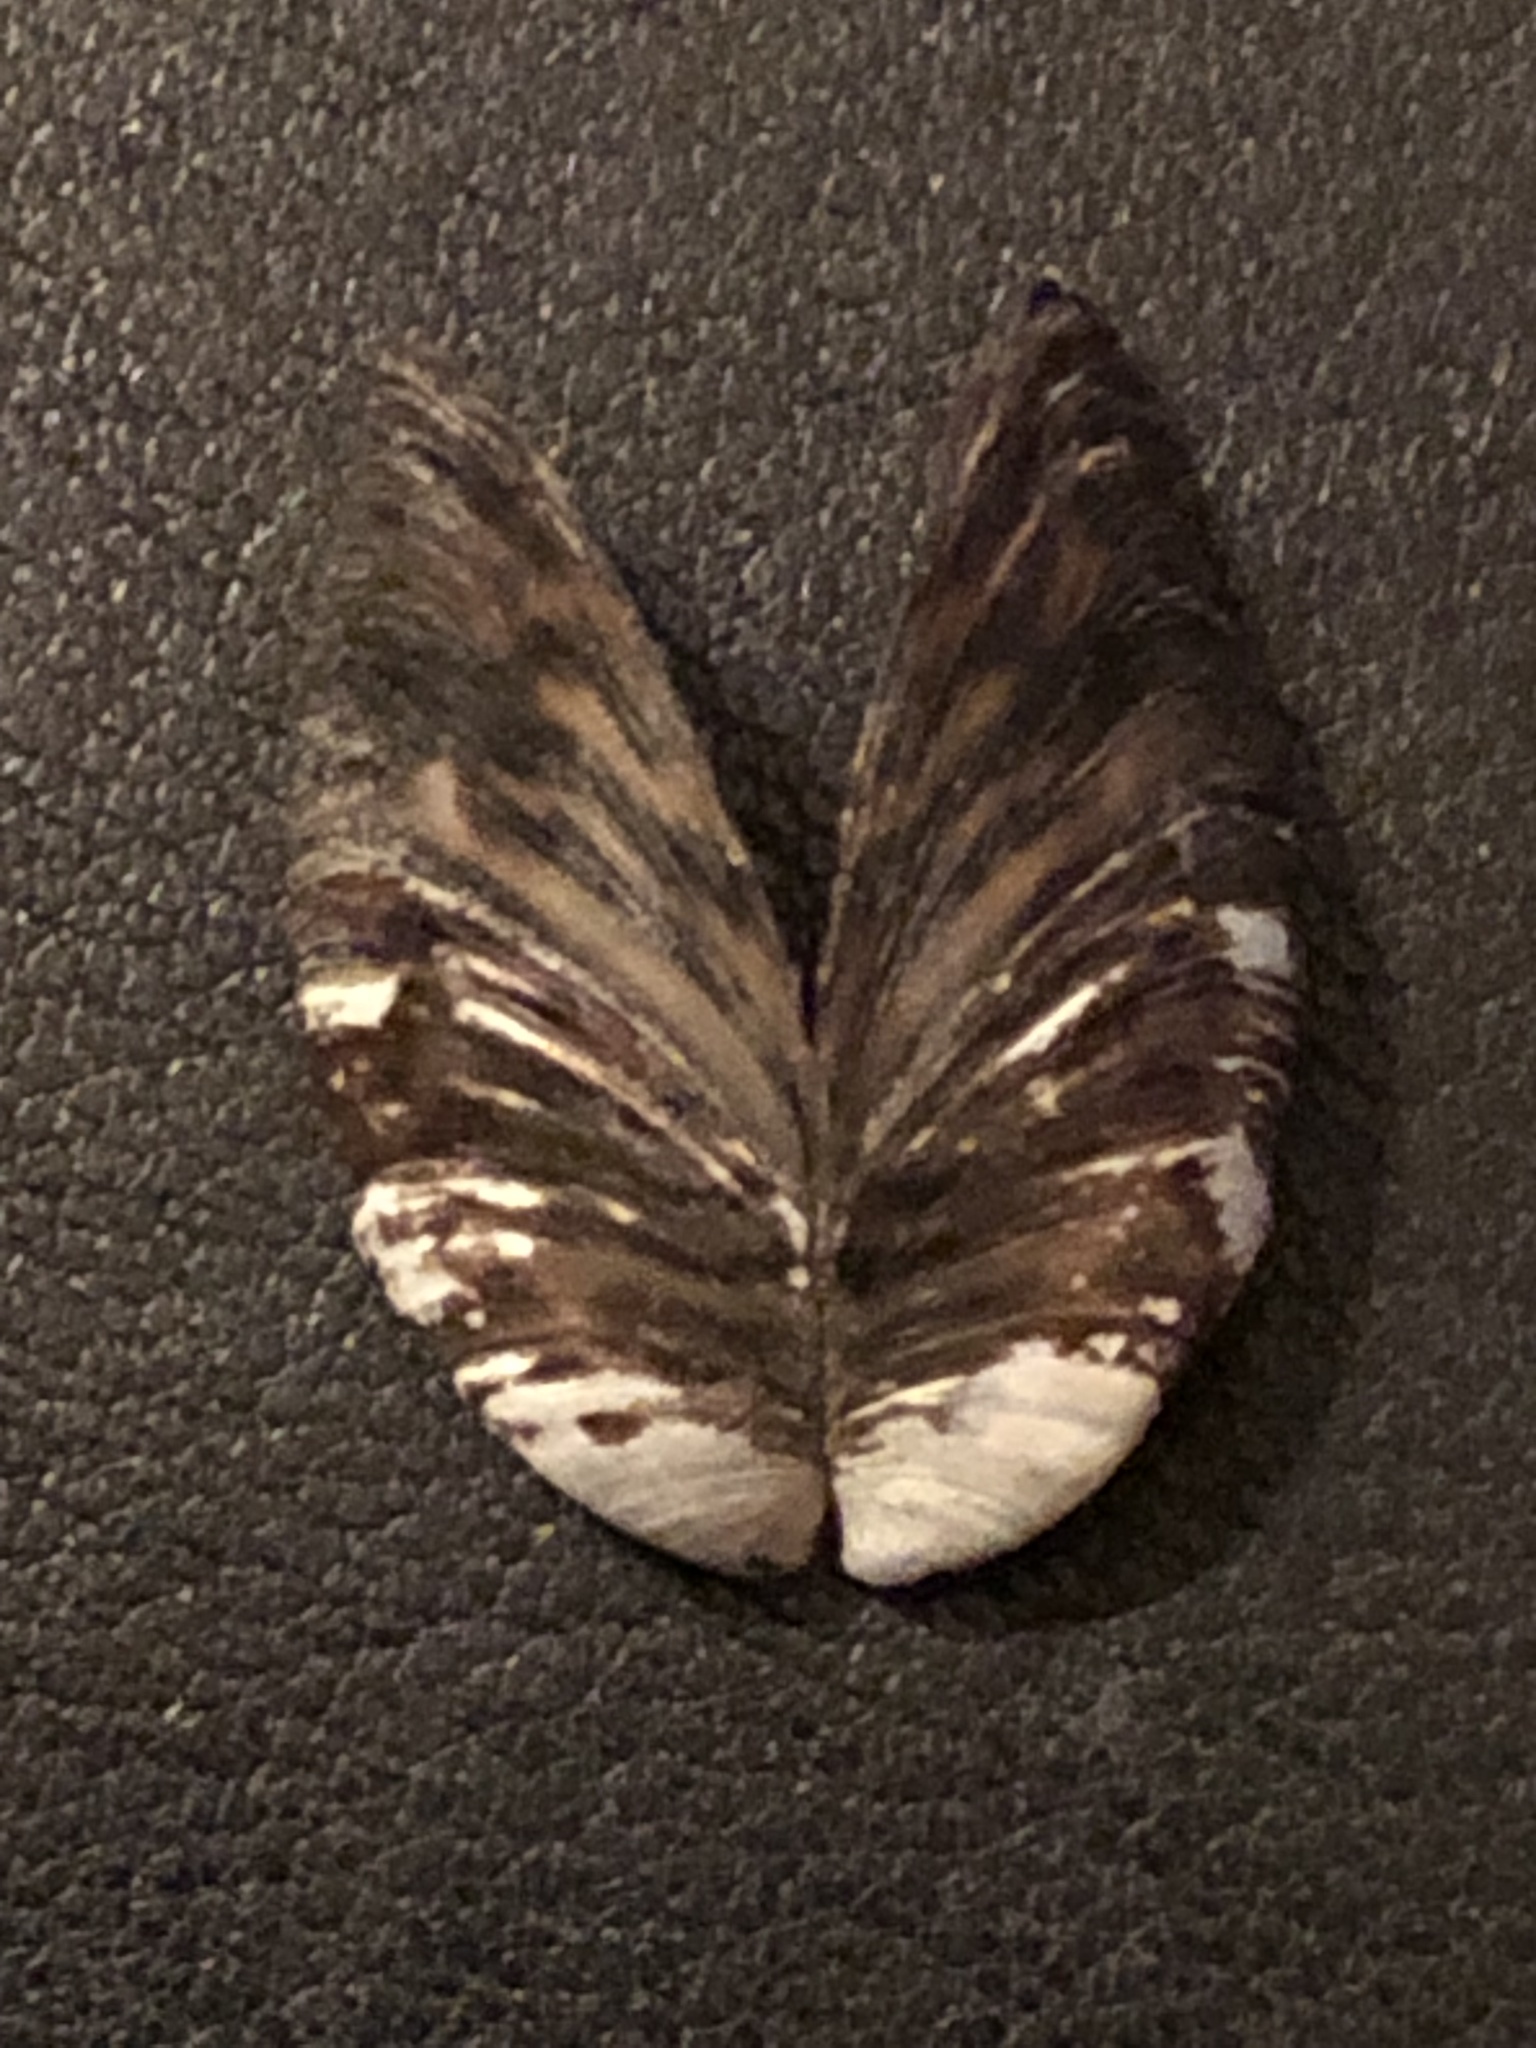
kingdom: Animalia
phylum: Mollusca
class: Bivalvia
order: Myida
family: Dreissenidae
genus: Dreissena
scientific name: Dreissena polymorpha
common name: Zebra mussel
